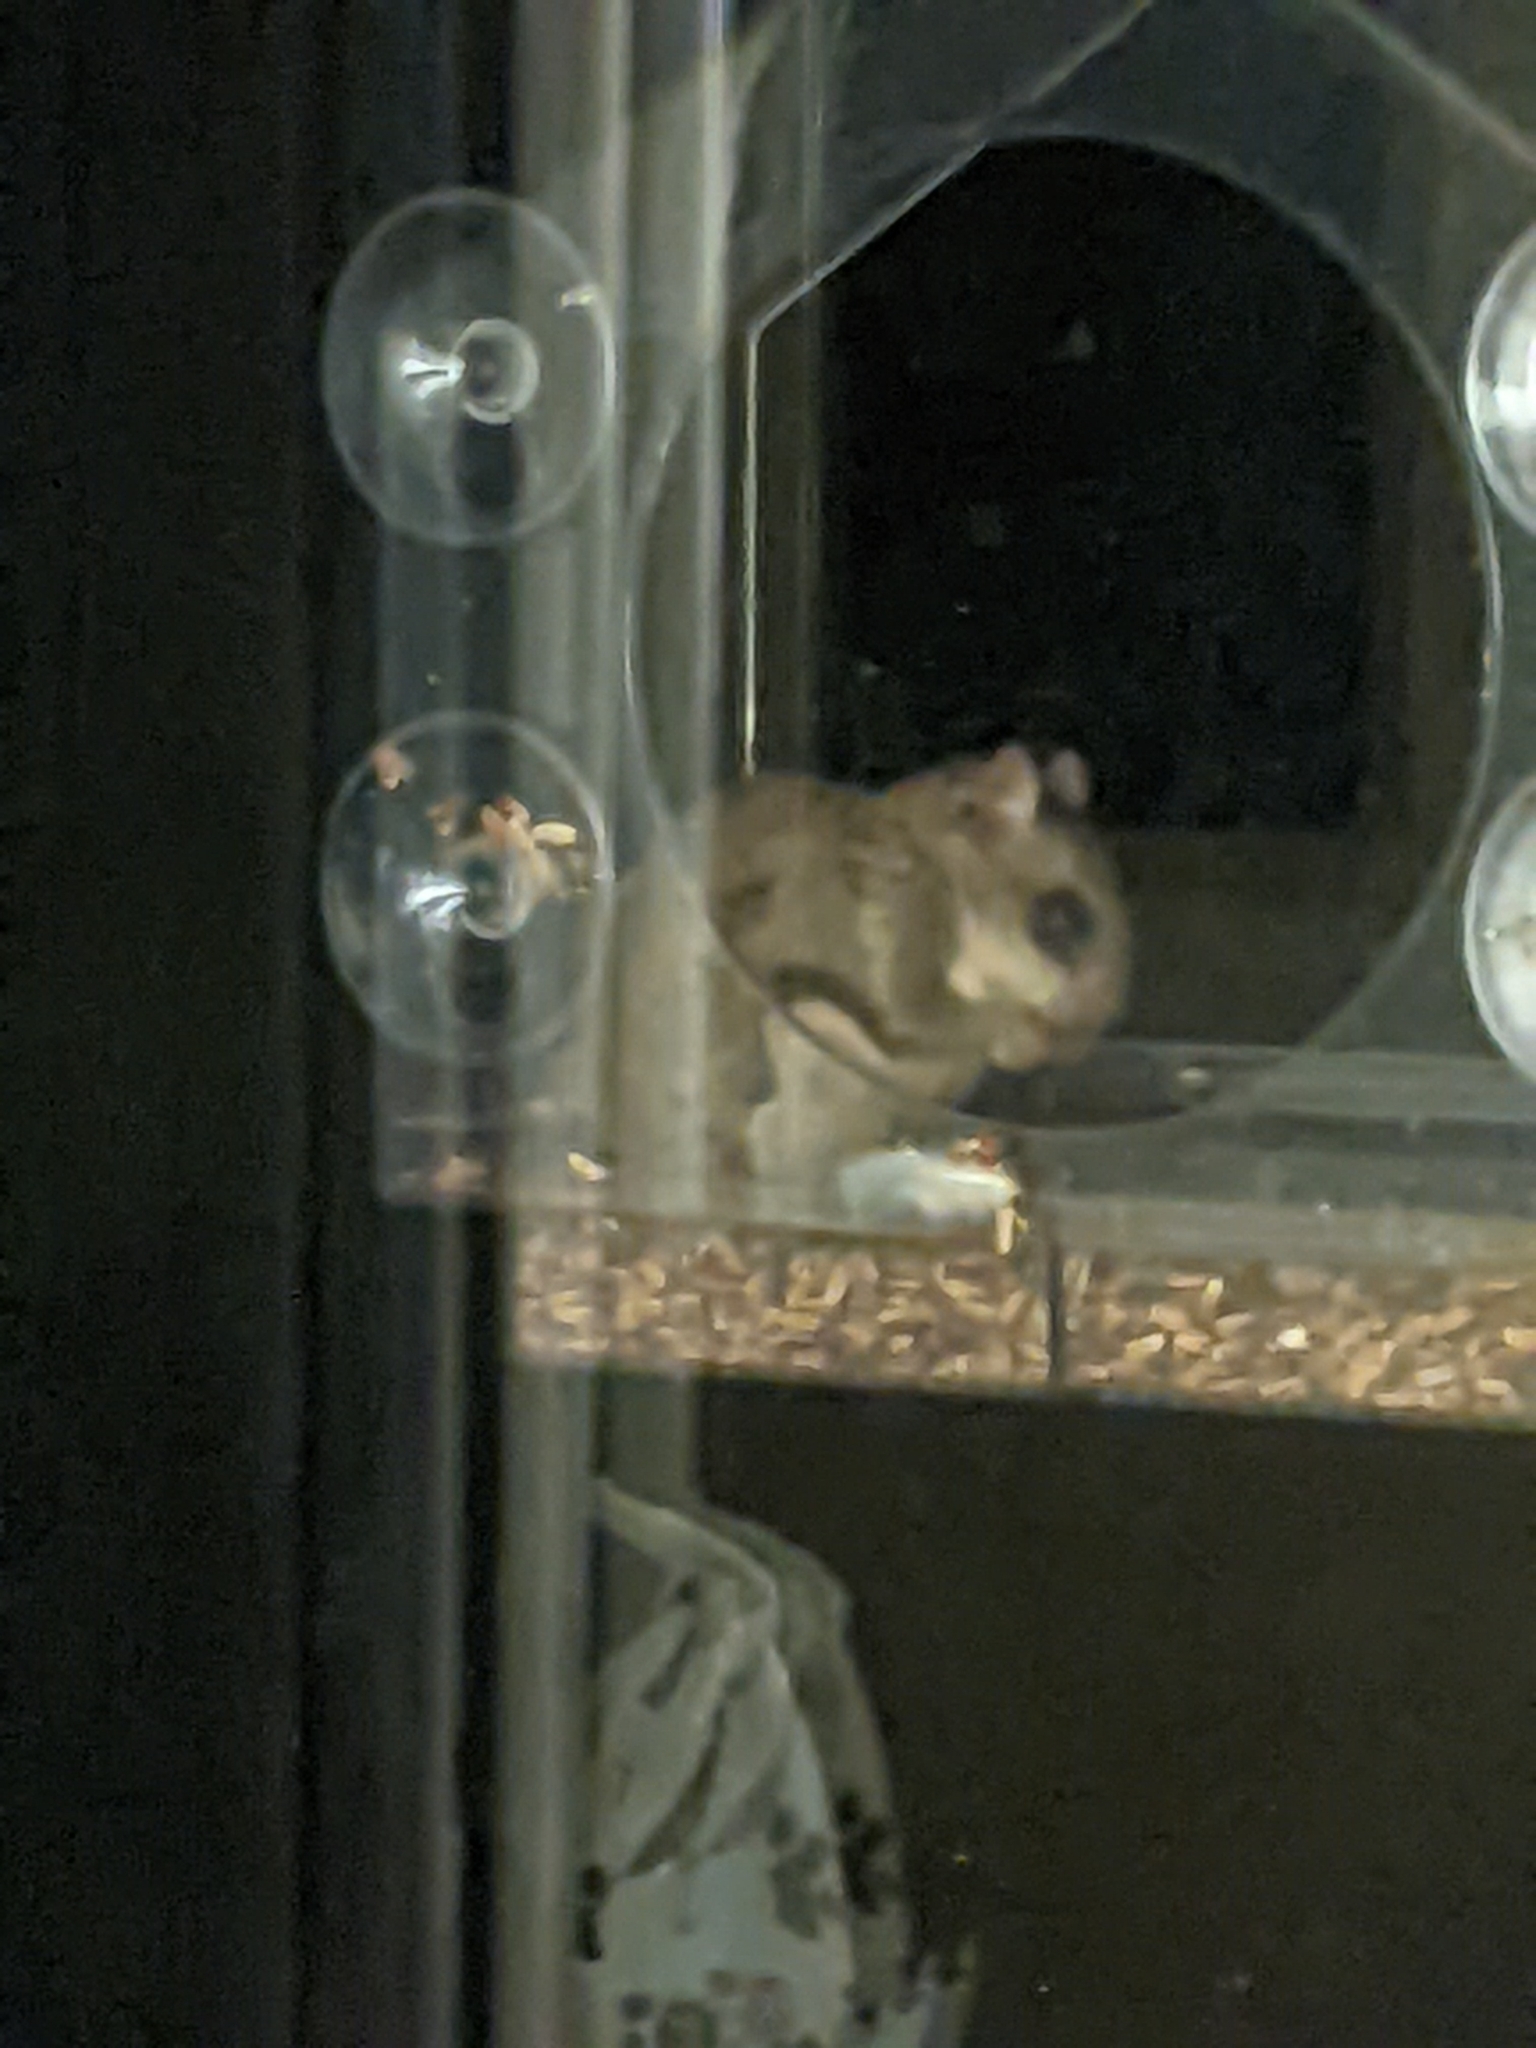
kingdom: Animalia
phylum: Chordata
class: Mammalia
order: Rodentia
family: Sciuridae
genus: Glaucomys
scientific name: Glaucomys sabrinus
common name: Northern flying squirrel
